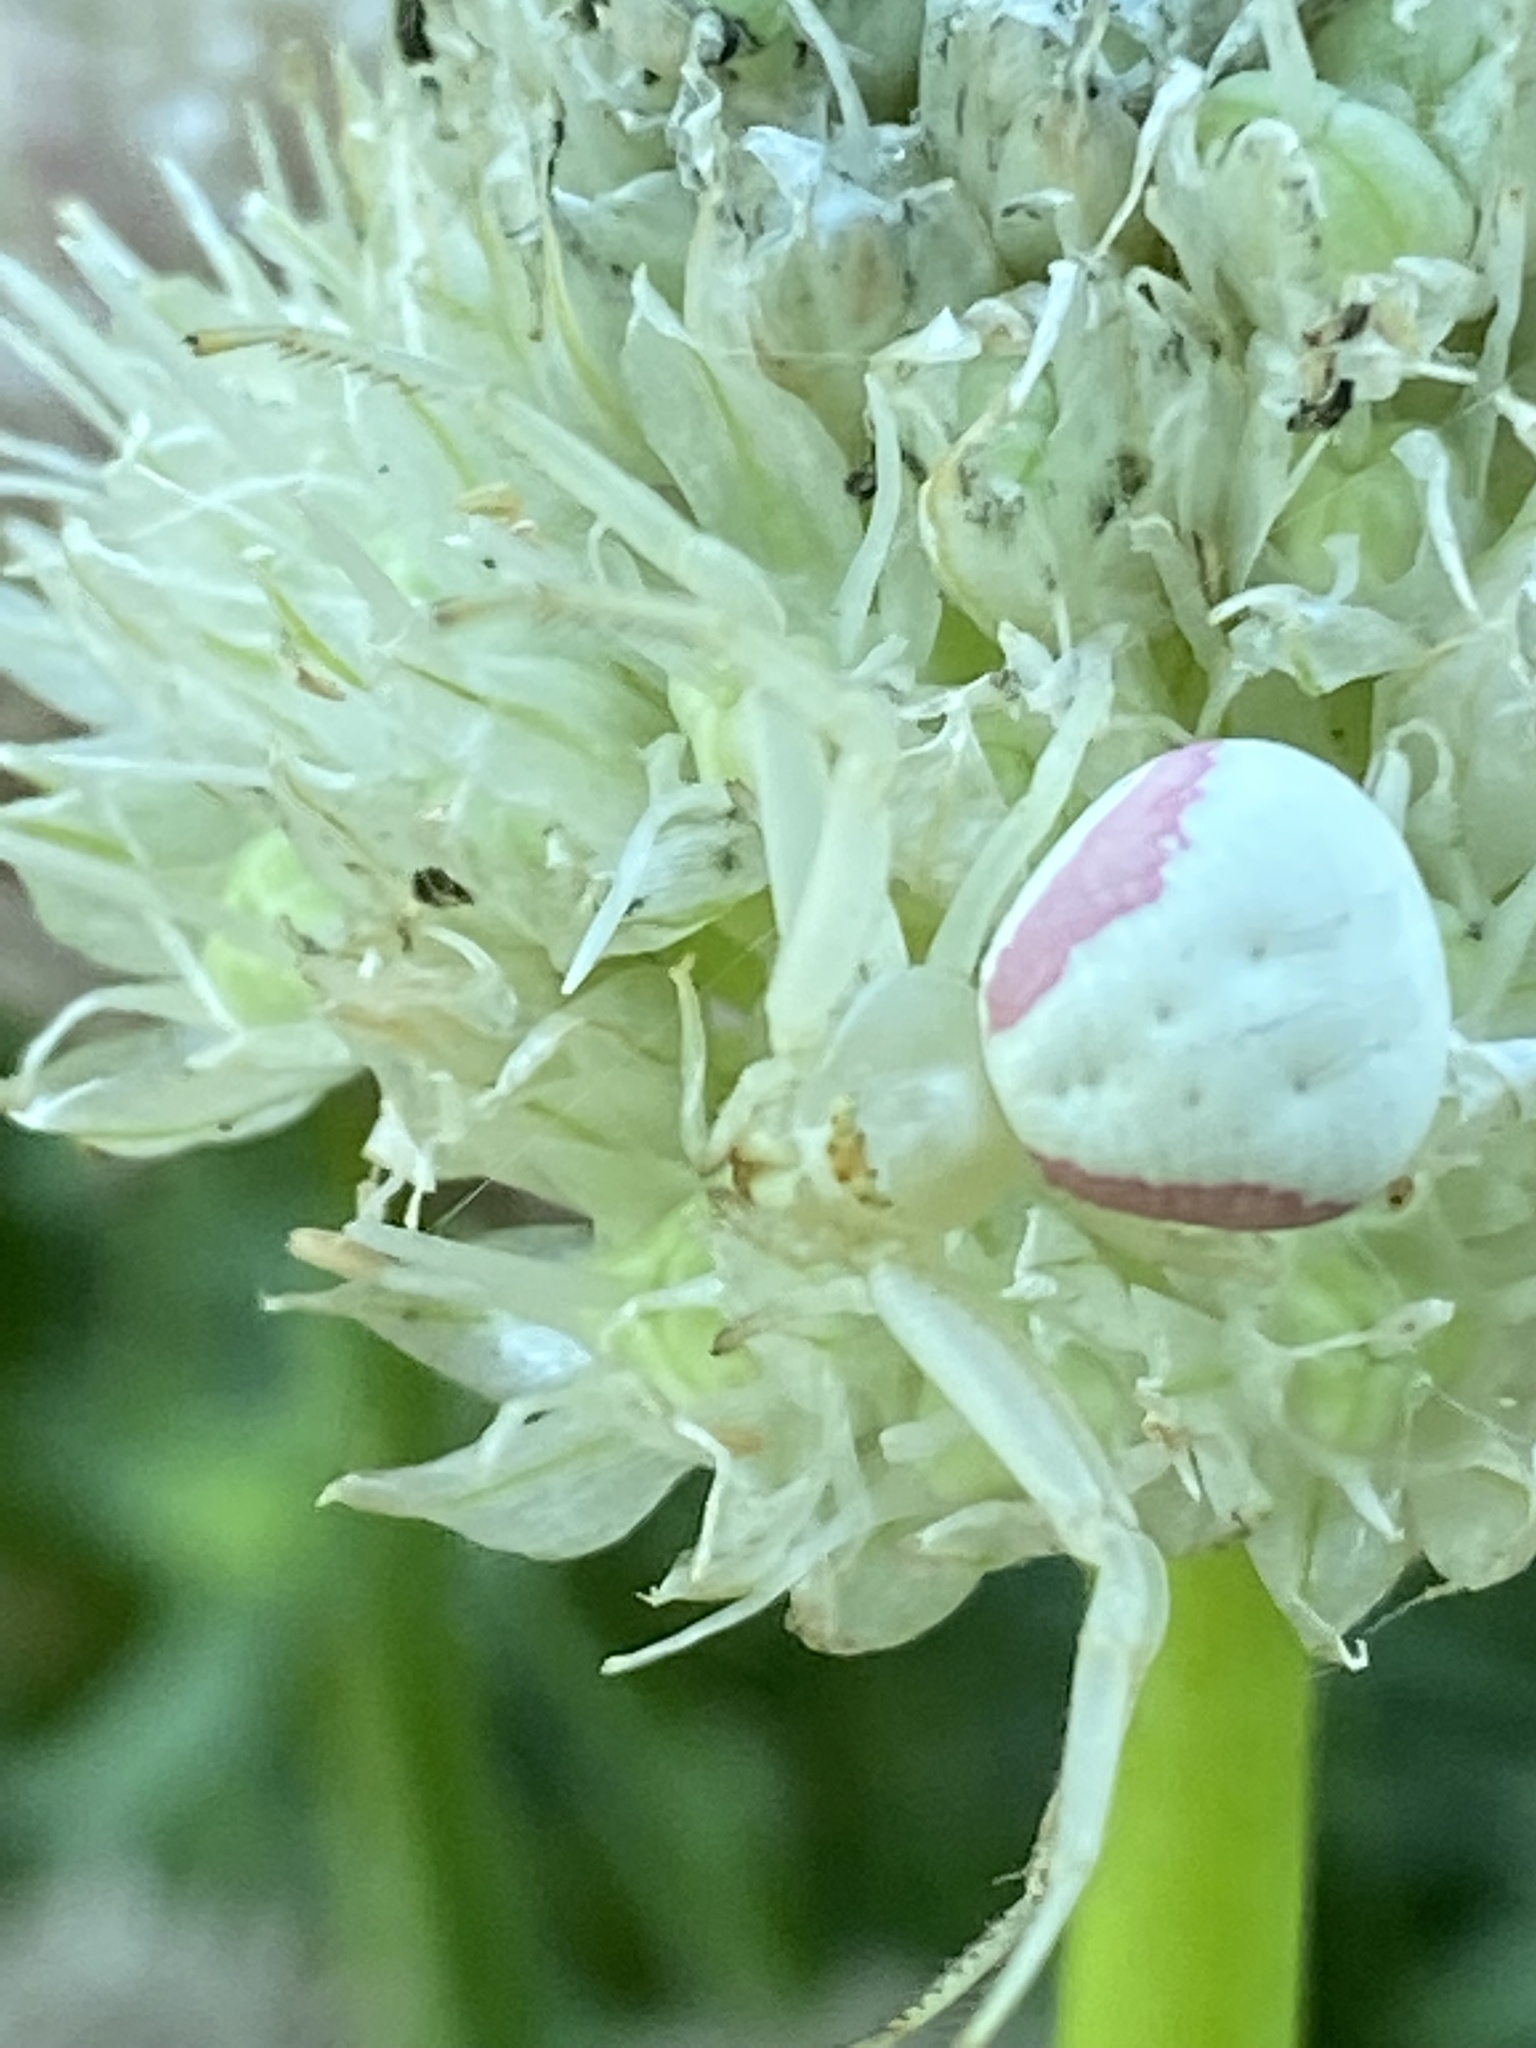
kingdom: Animalia
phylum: Arthropoda
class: Arachnida
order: Araneae
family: Thomisidae
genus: Misumena
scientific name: Misumena vatia
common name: Goldenrod crab spider
